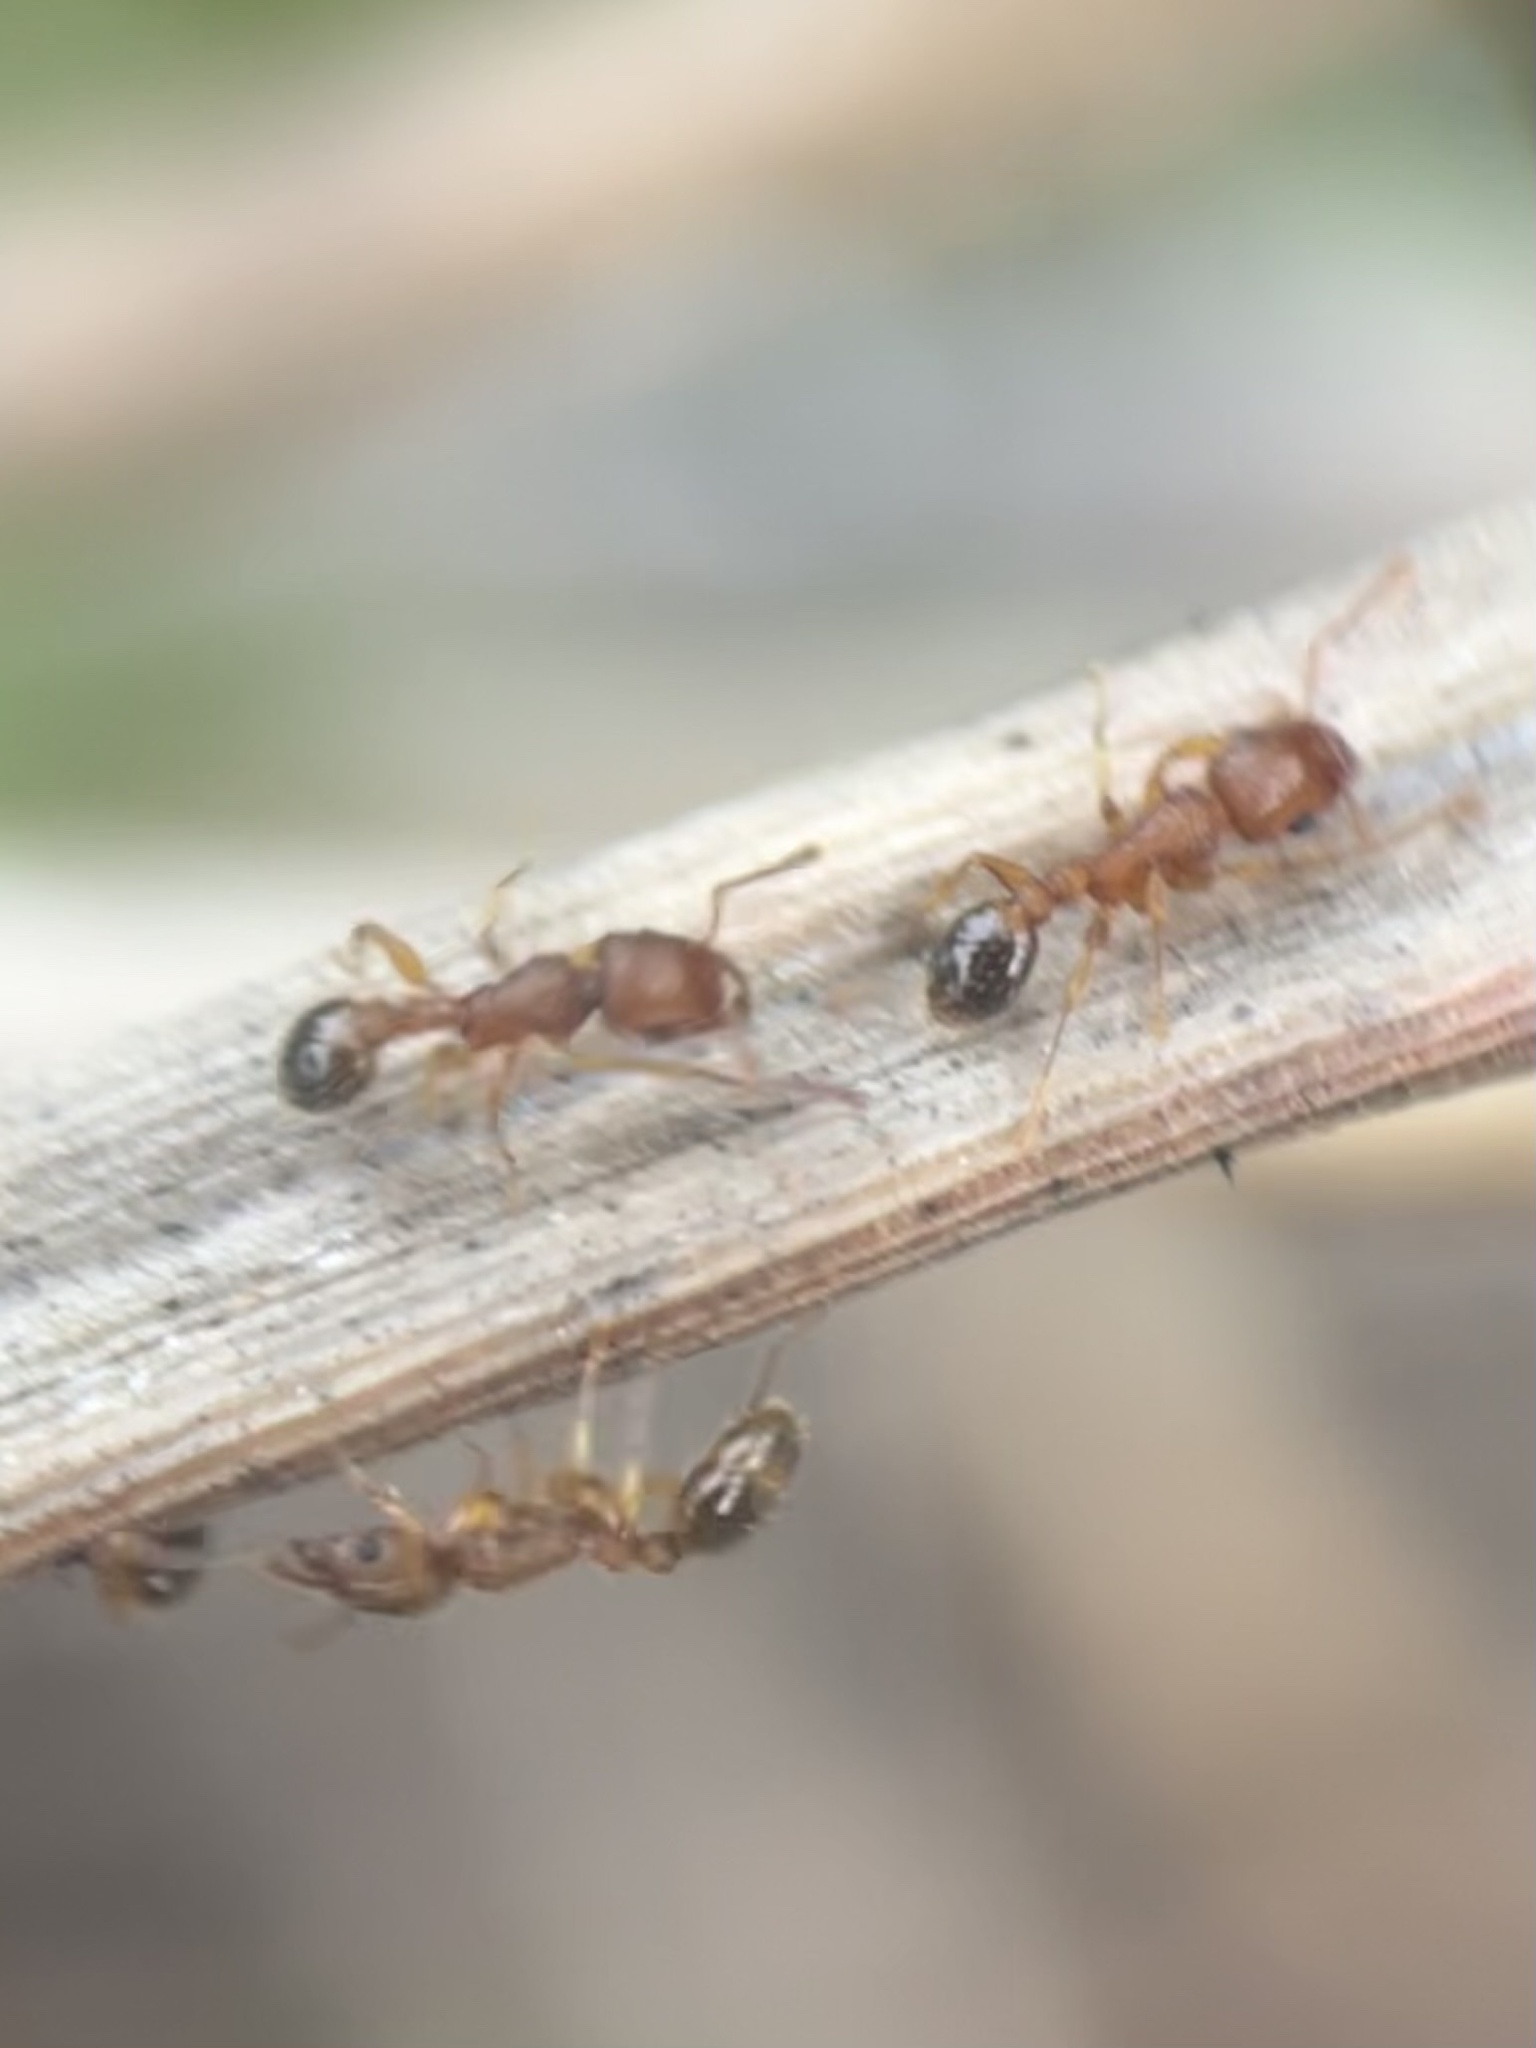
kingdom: Animalia
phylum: Arthropoda
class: Insecta
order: Hymenoptera
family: Formicidae
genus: Tetramorium
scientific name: Tetramorium bicarinatum
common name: Guinea ant
